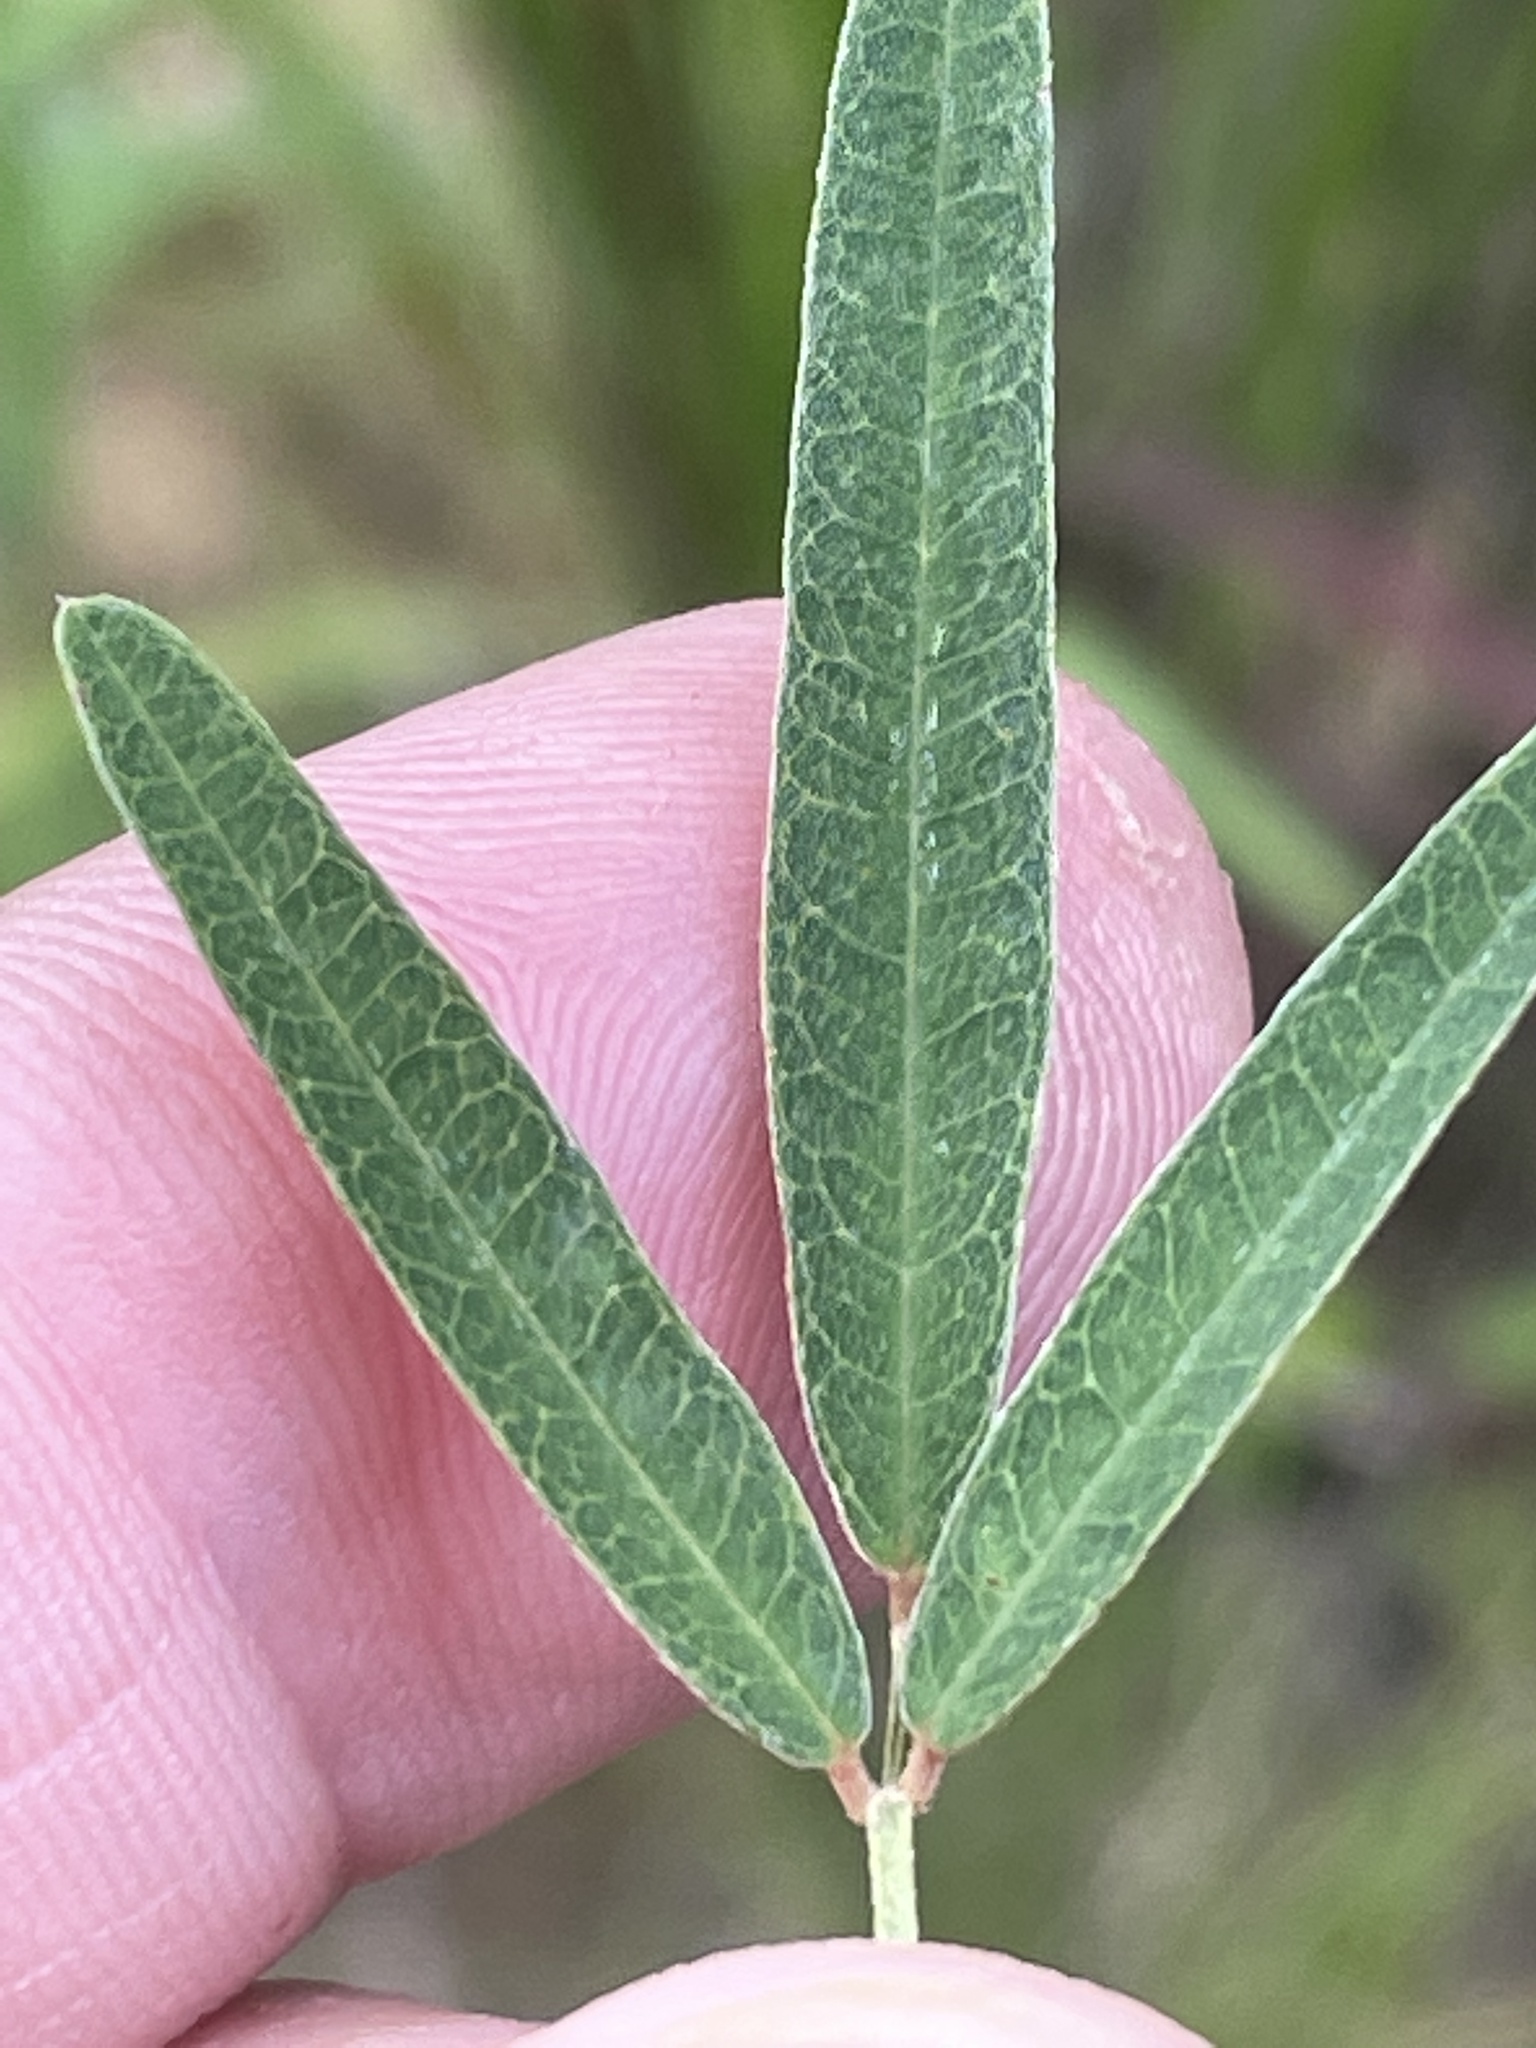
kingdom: Plantae
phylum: Tracheophyta
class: Magnoliopsida
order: Fabales
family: Fabaceae
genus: Lespedeza
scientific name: Lespedeza virginica
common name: Slender bush-clover
